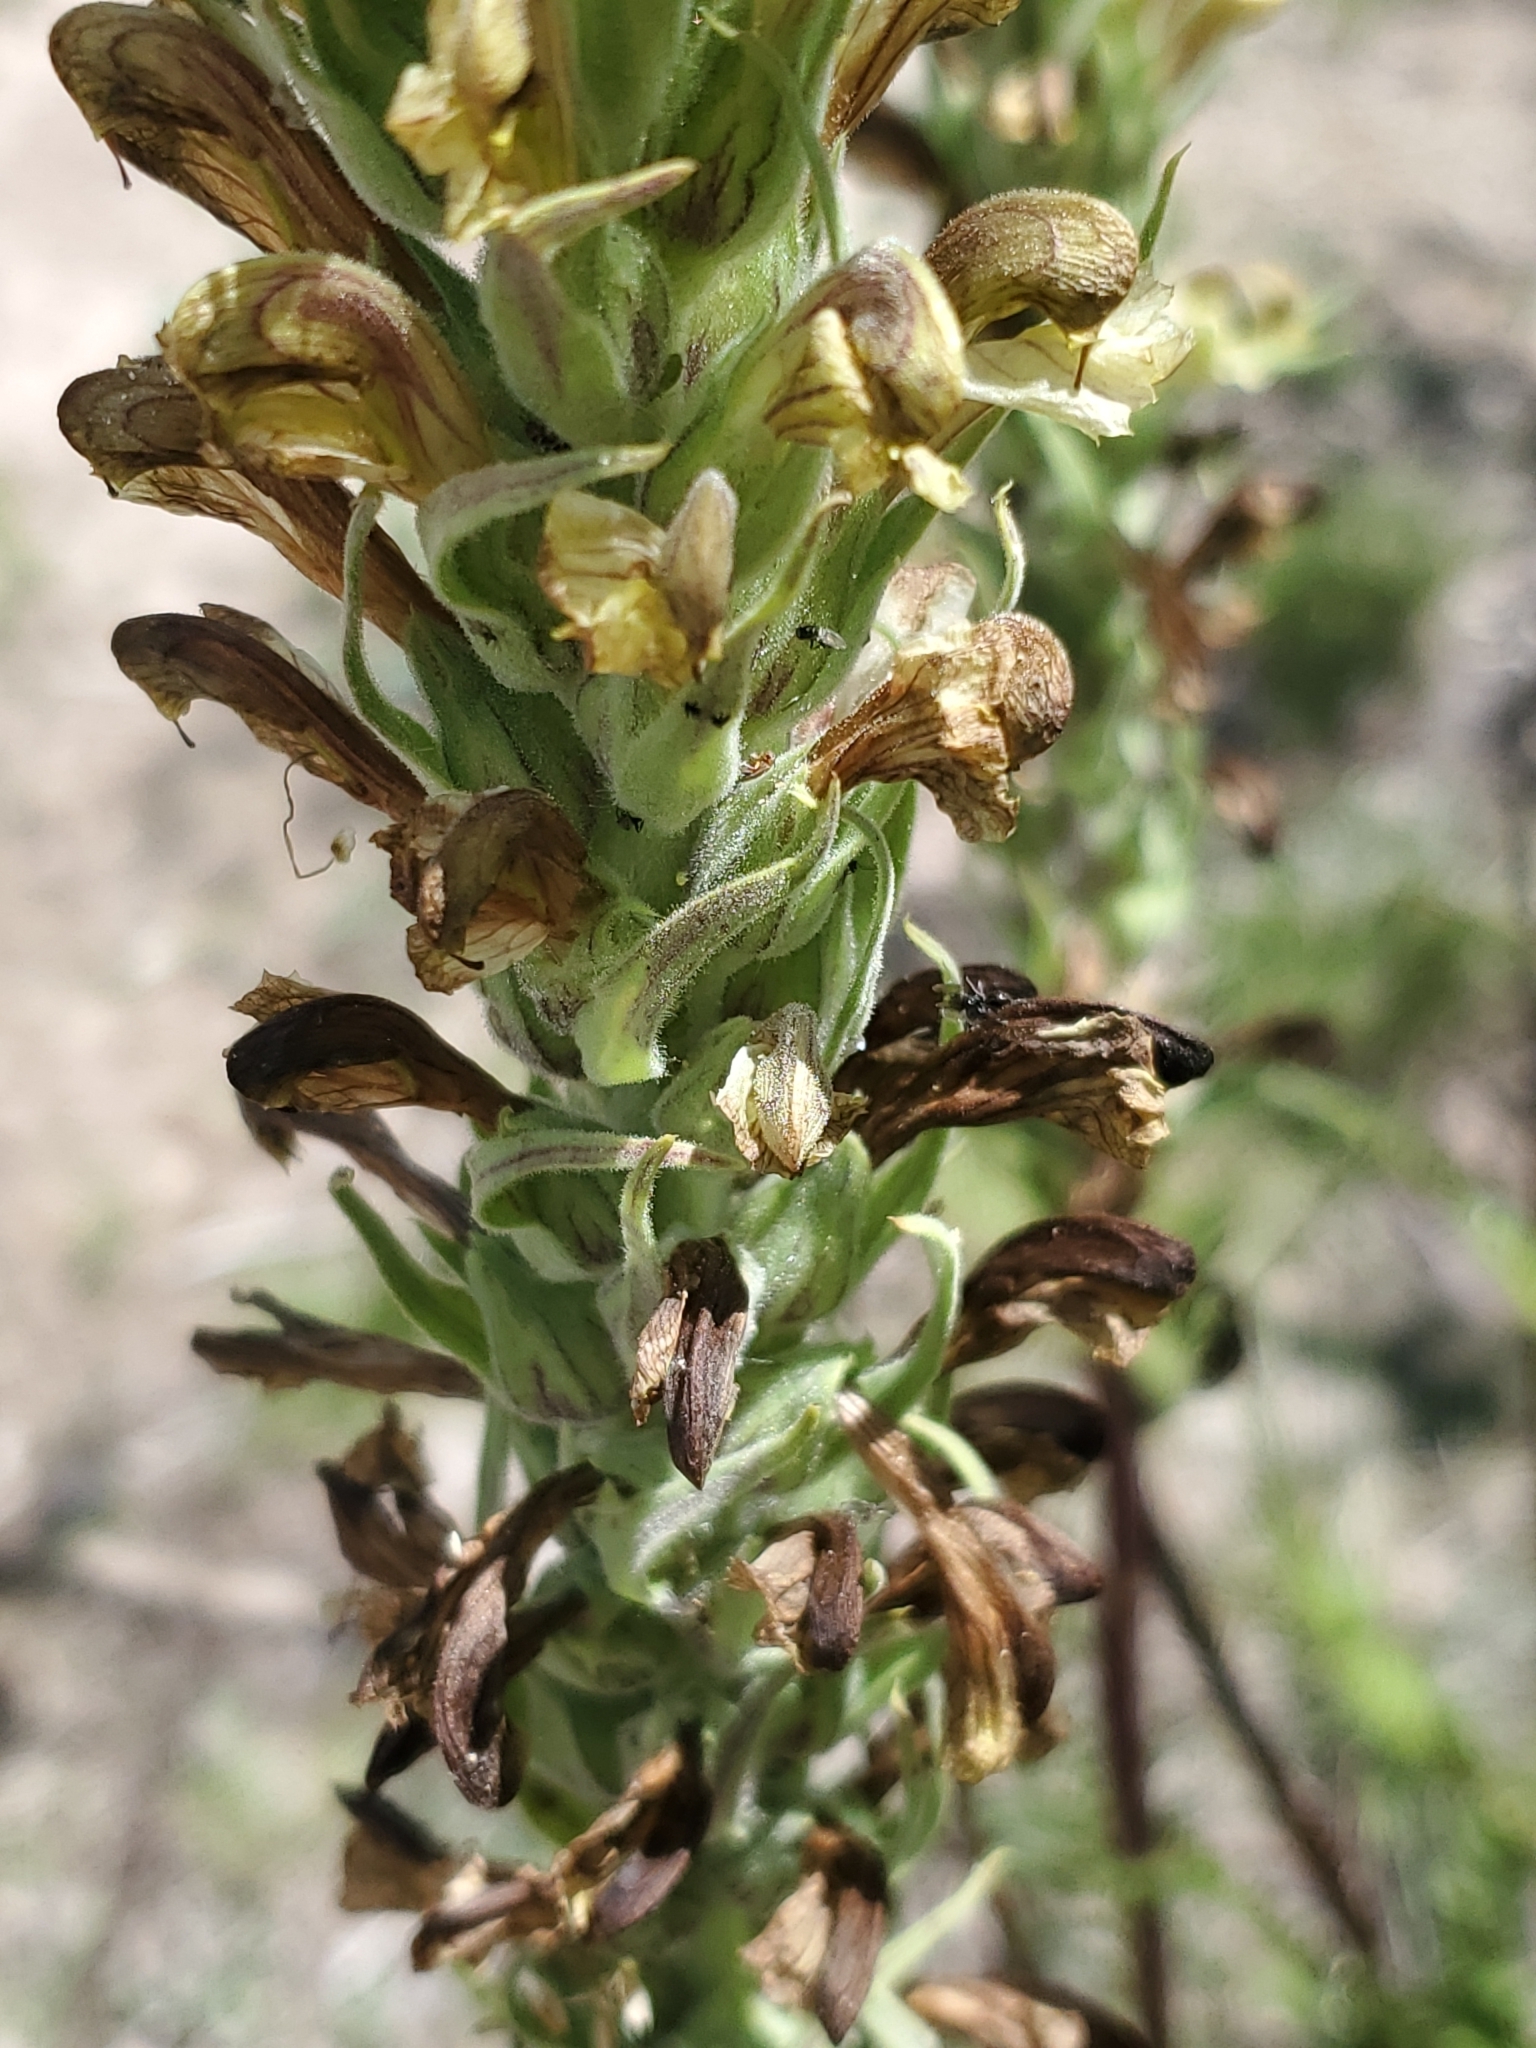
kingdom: Plantae
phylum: Tracheophyta
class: Magnoliopsida
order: Lamiales
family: Orobanchaceae
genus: Pedicularis
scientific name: Pedicularis procera
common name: Gray's lousewort
